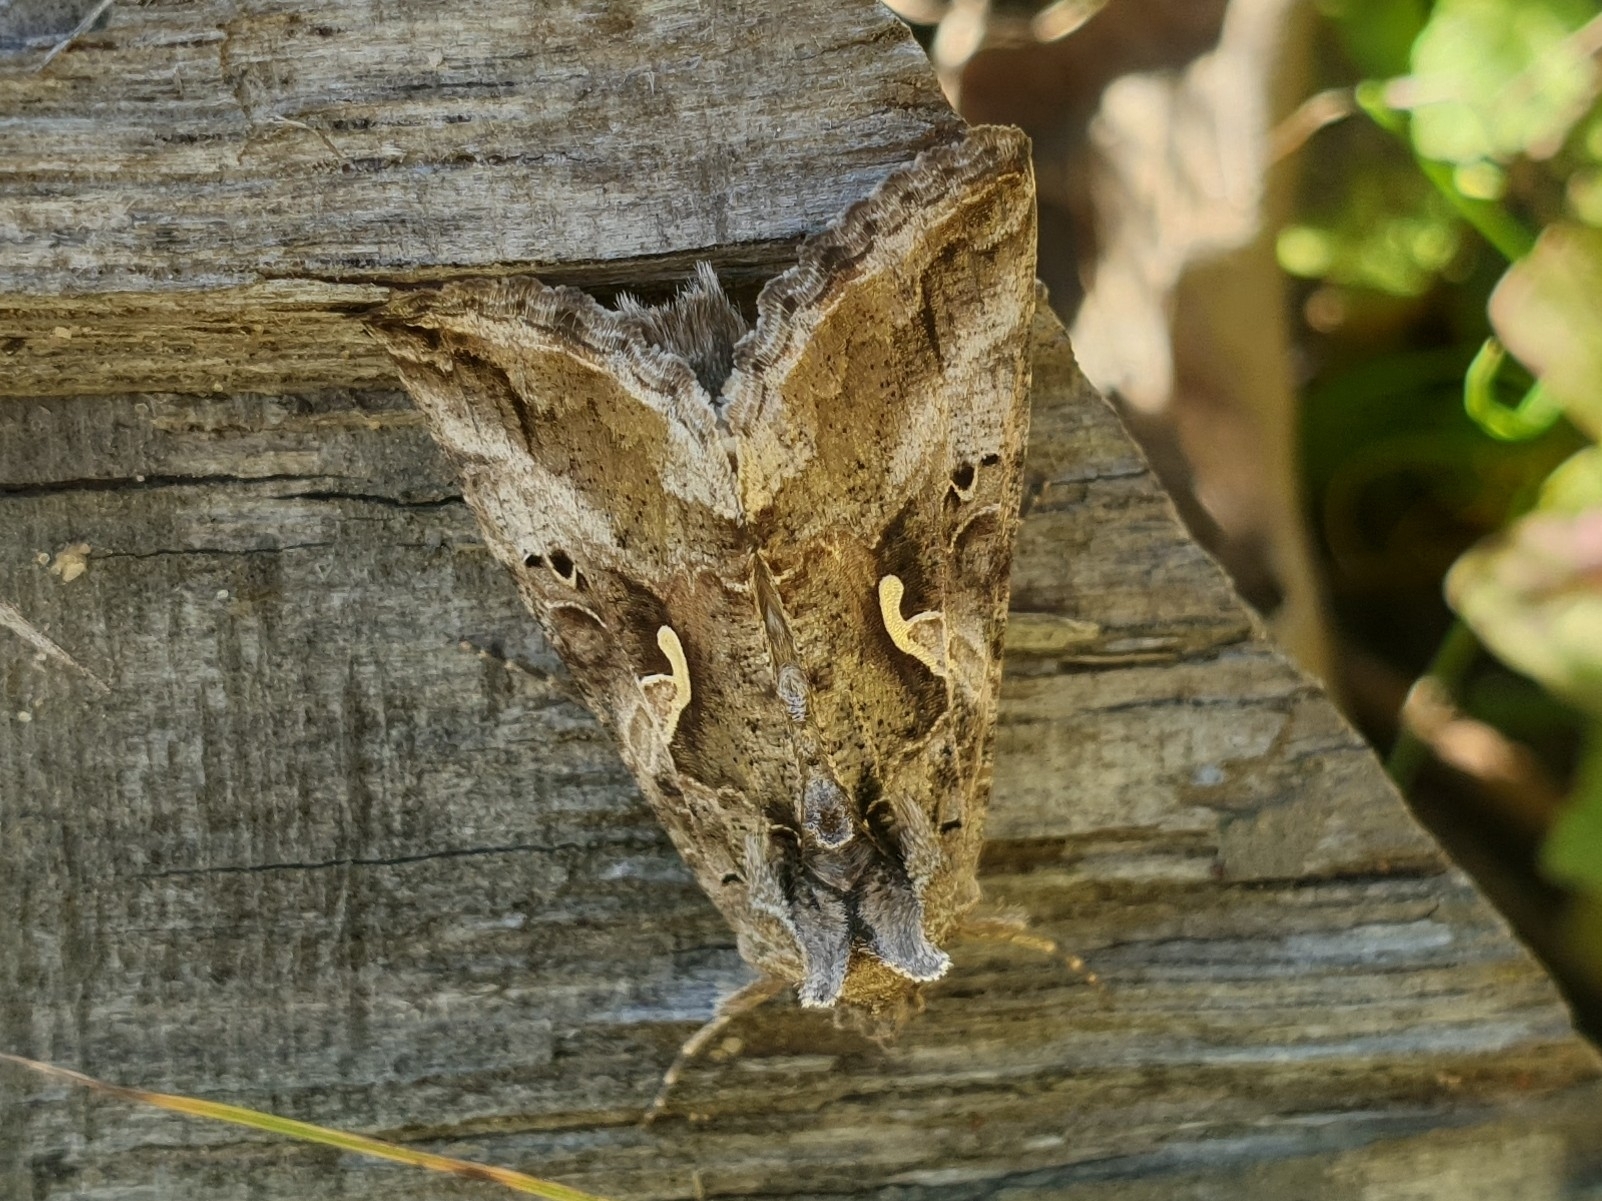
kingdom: Animalia
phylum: Arthropoda
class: Insecta
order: Lepidoptera
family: Noctuidae
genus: Autographa
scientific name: Autographa gamma
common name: Silver y
